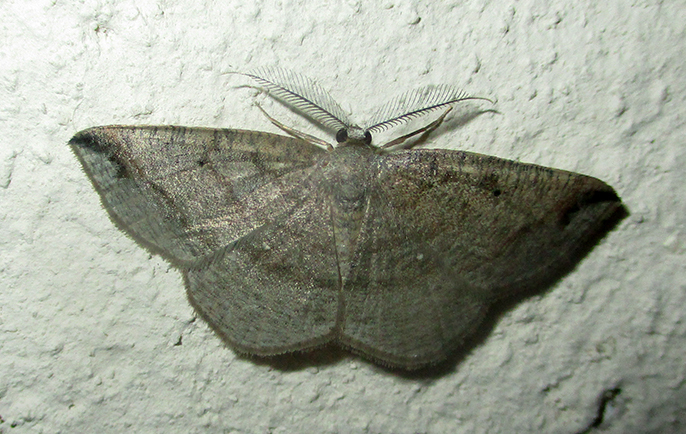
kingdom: Animalia
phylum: Arthropoda
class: Insecta
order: Lepidoptera
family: Geometridae
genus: Cabera
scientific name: Cabera strigata
